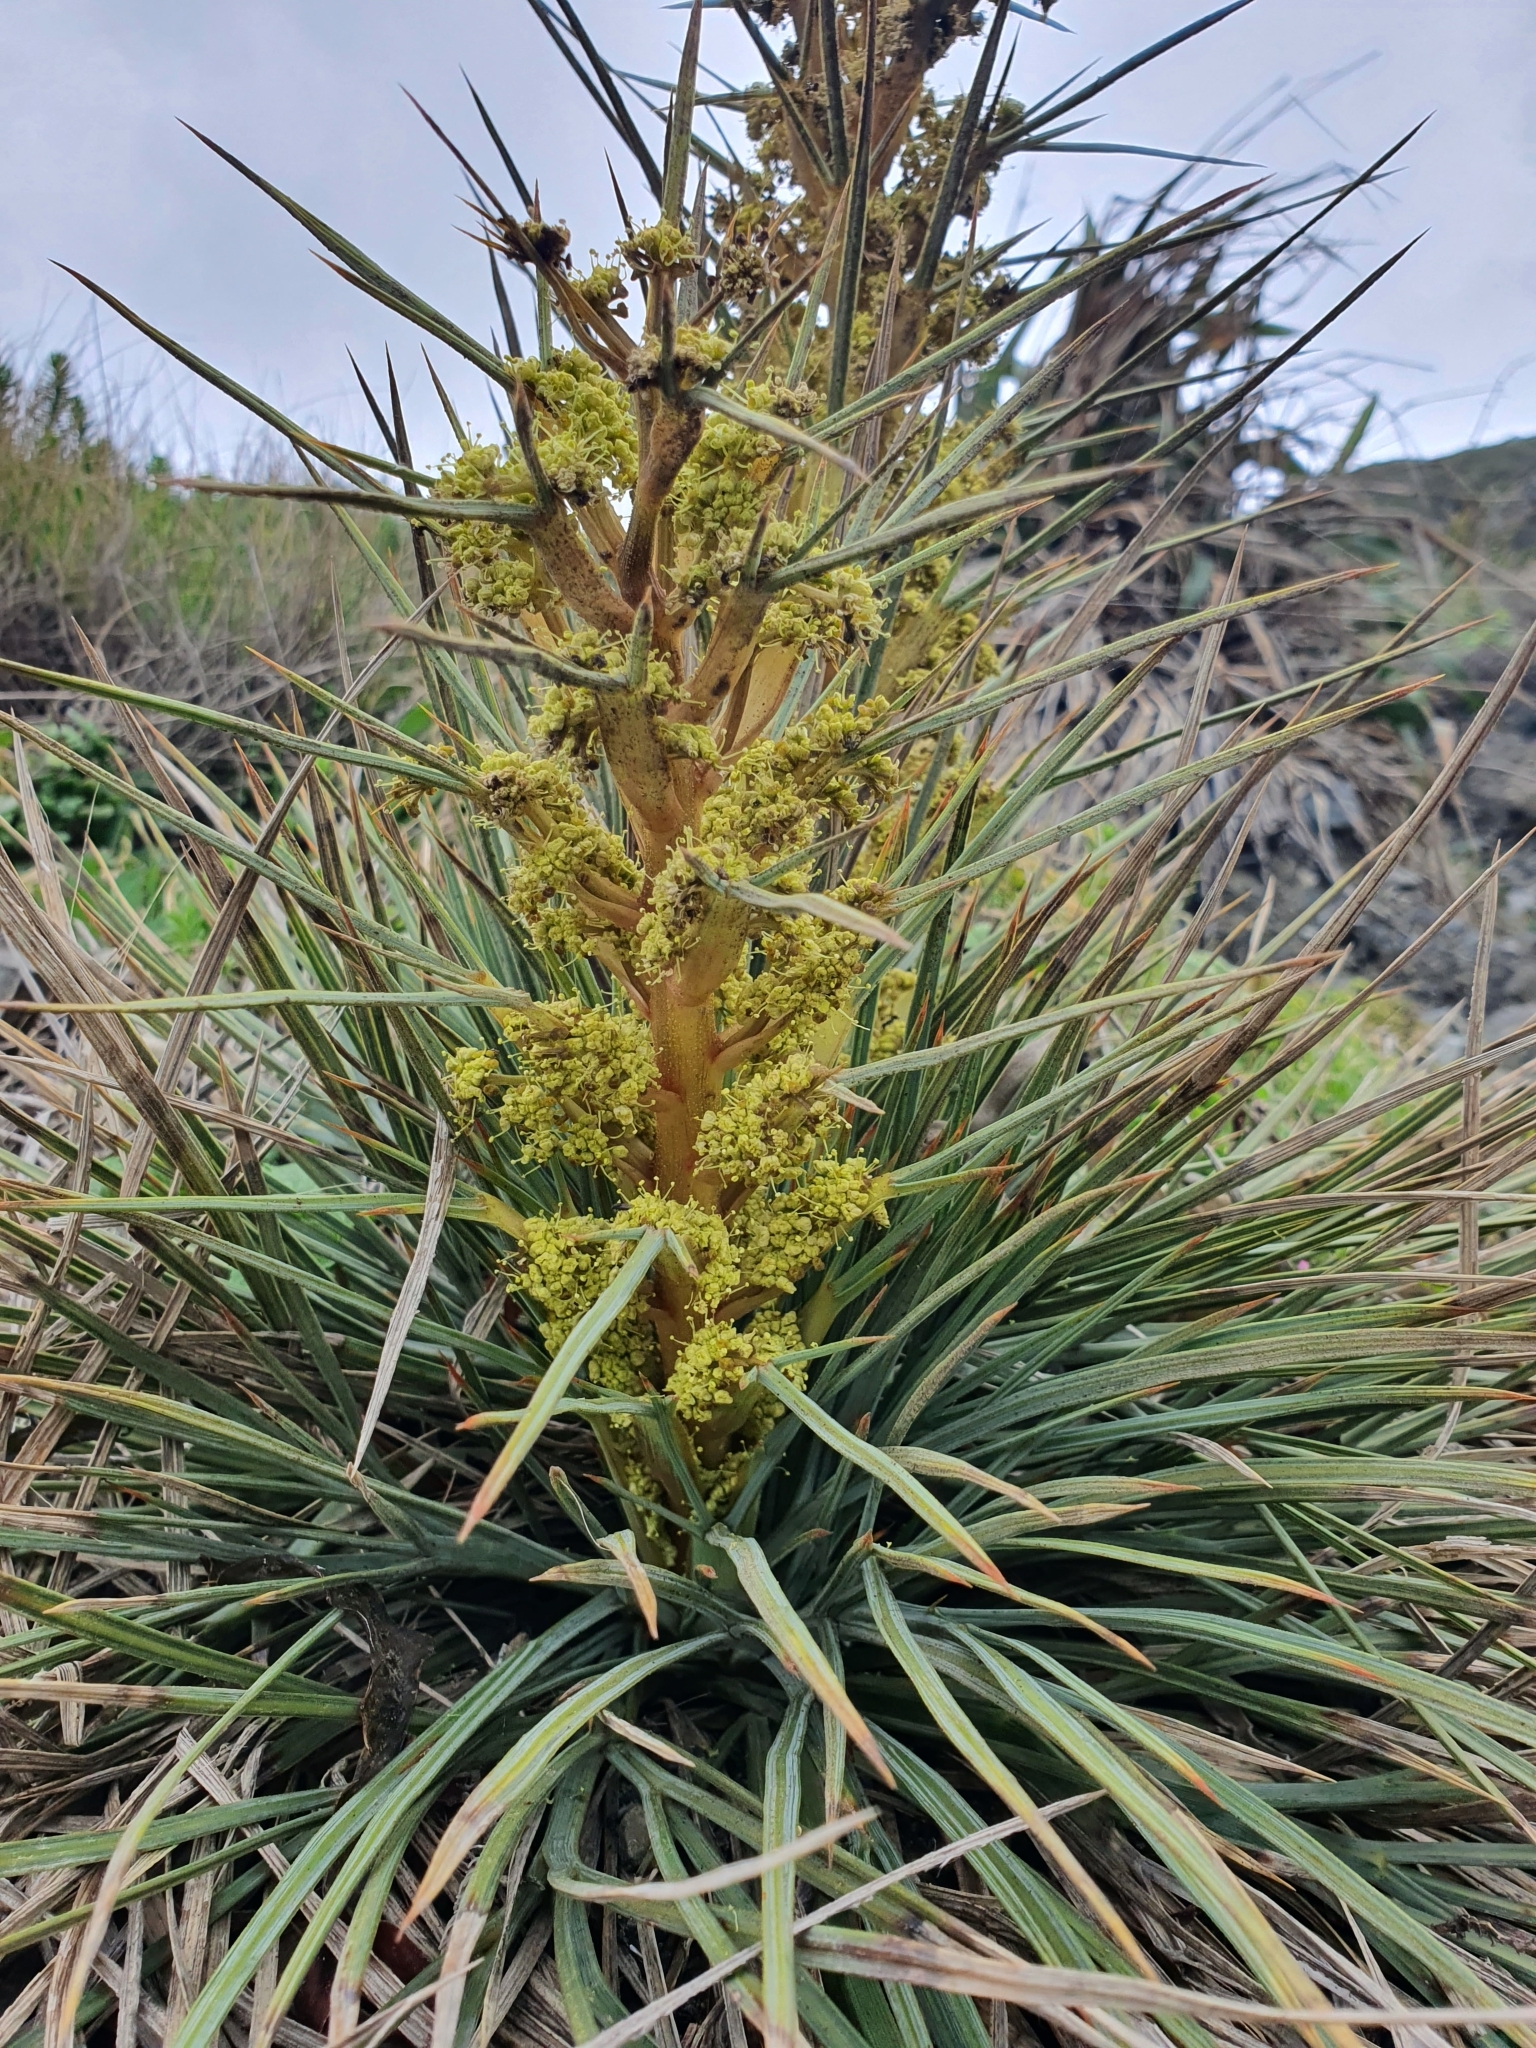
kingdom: Plantae
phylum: Tracheophyta
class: Magnoliopsida
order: Apiales
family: Apiaceae
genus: Aciphylla
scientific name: Aciphylla squarrosa
